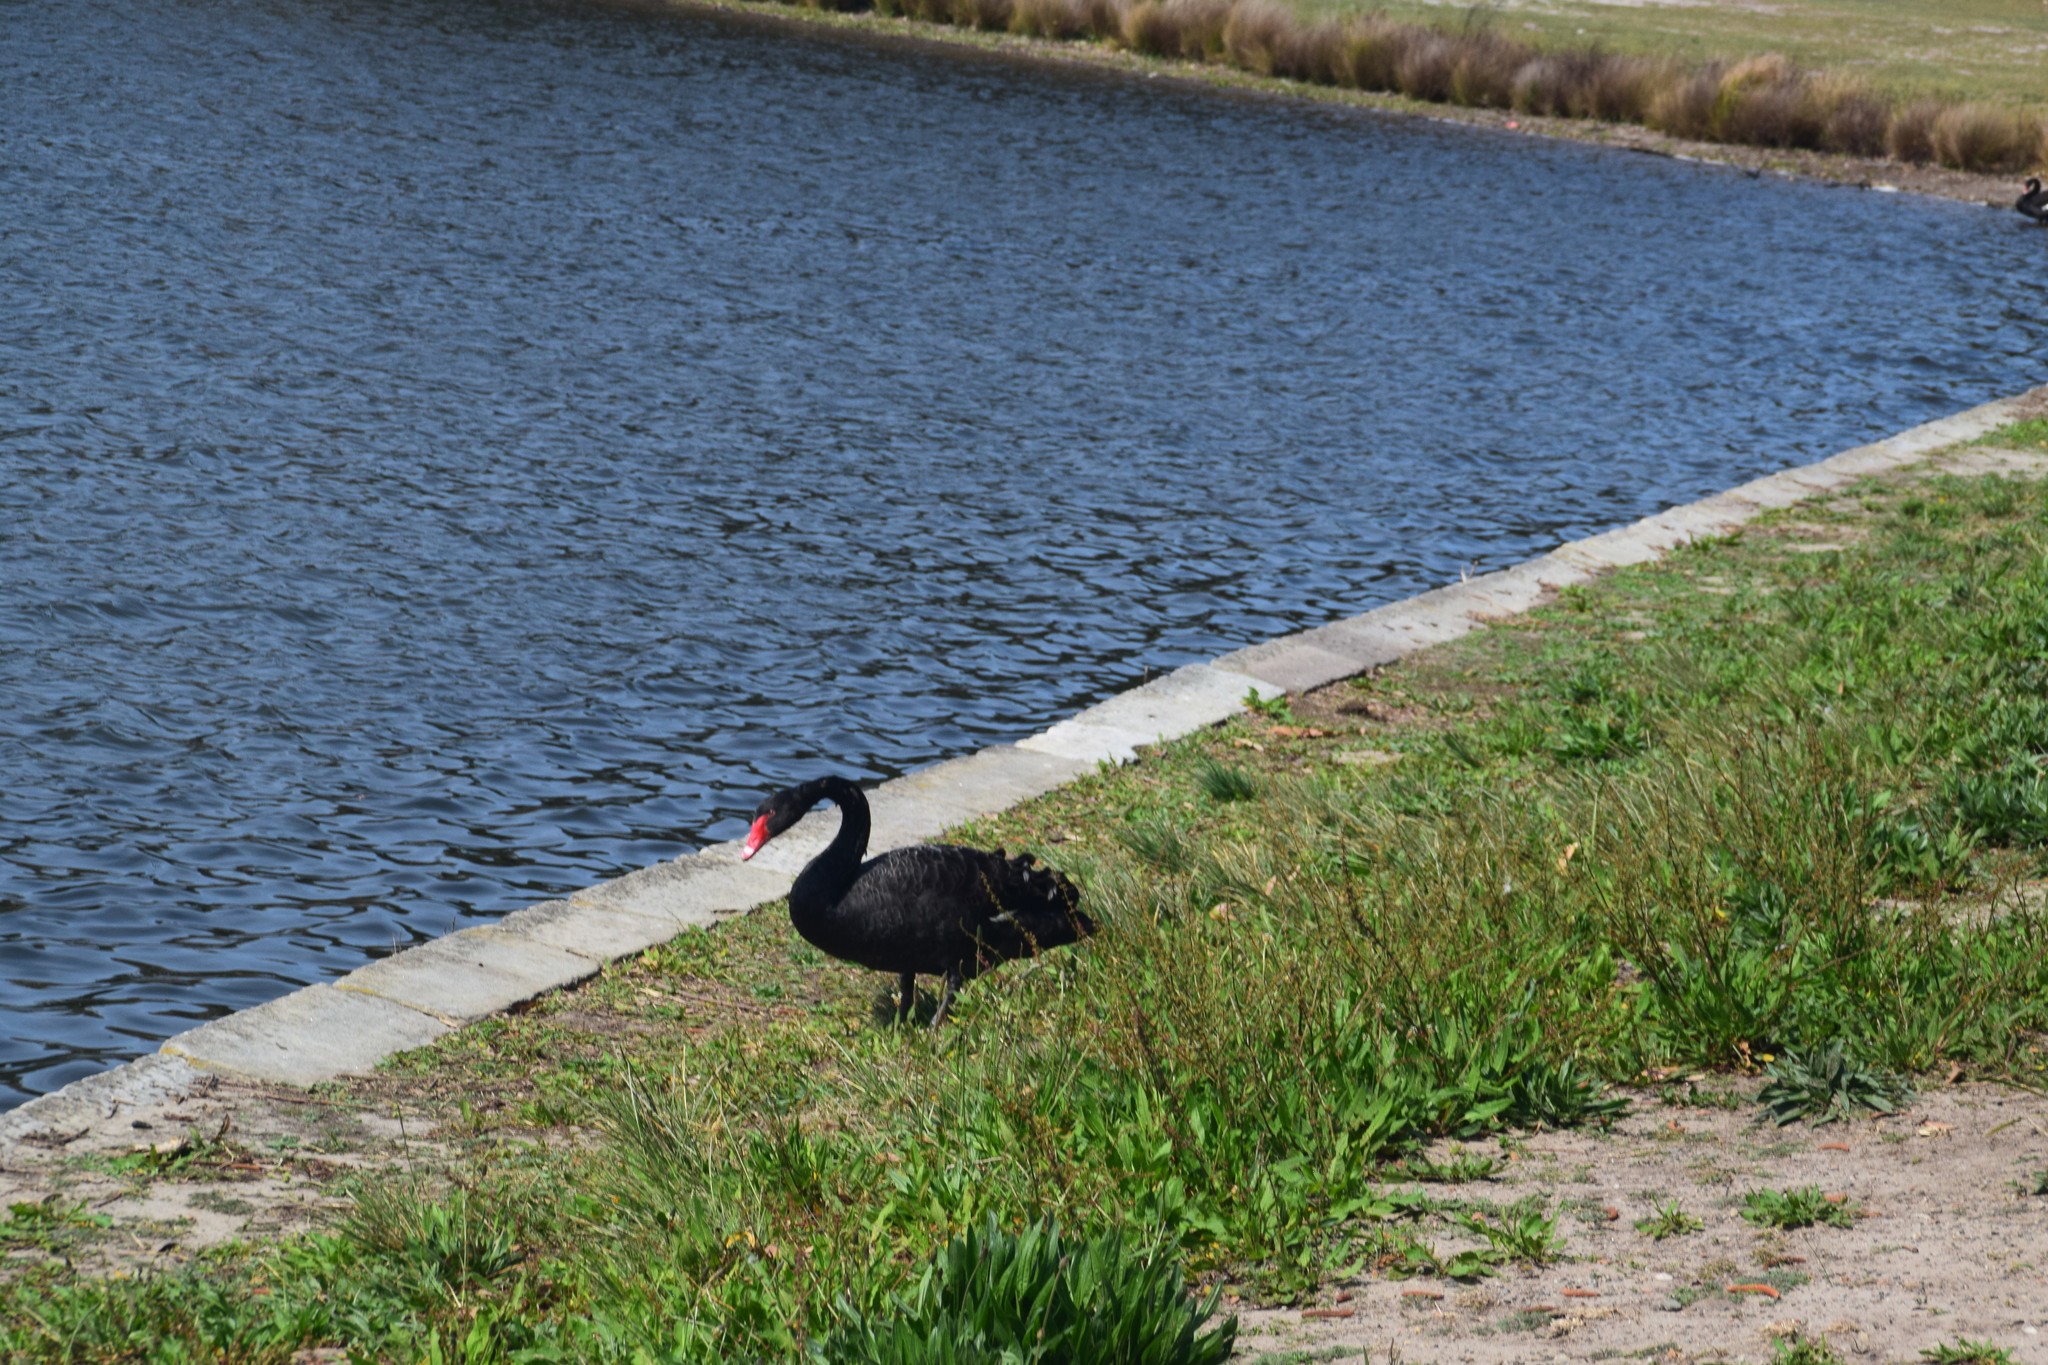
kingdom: Animalia
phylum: Chordata
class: Aves
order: Anseriformes
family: Anatidae
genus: Cygnus
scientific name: Cygnus atratus
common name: Black swan
